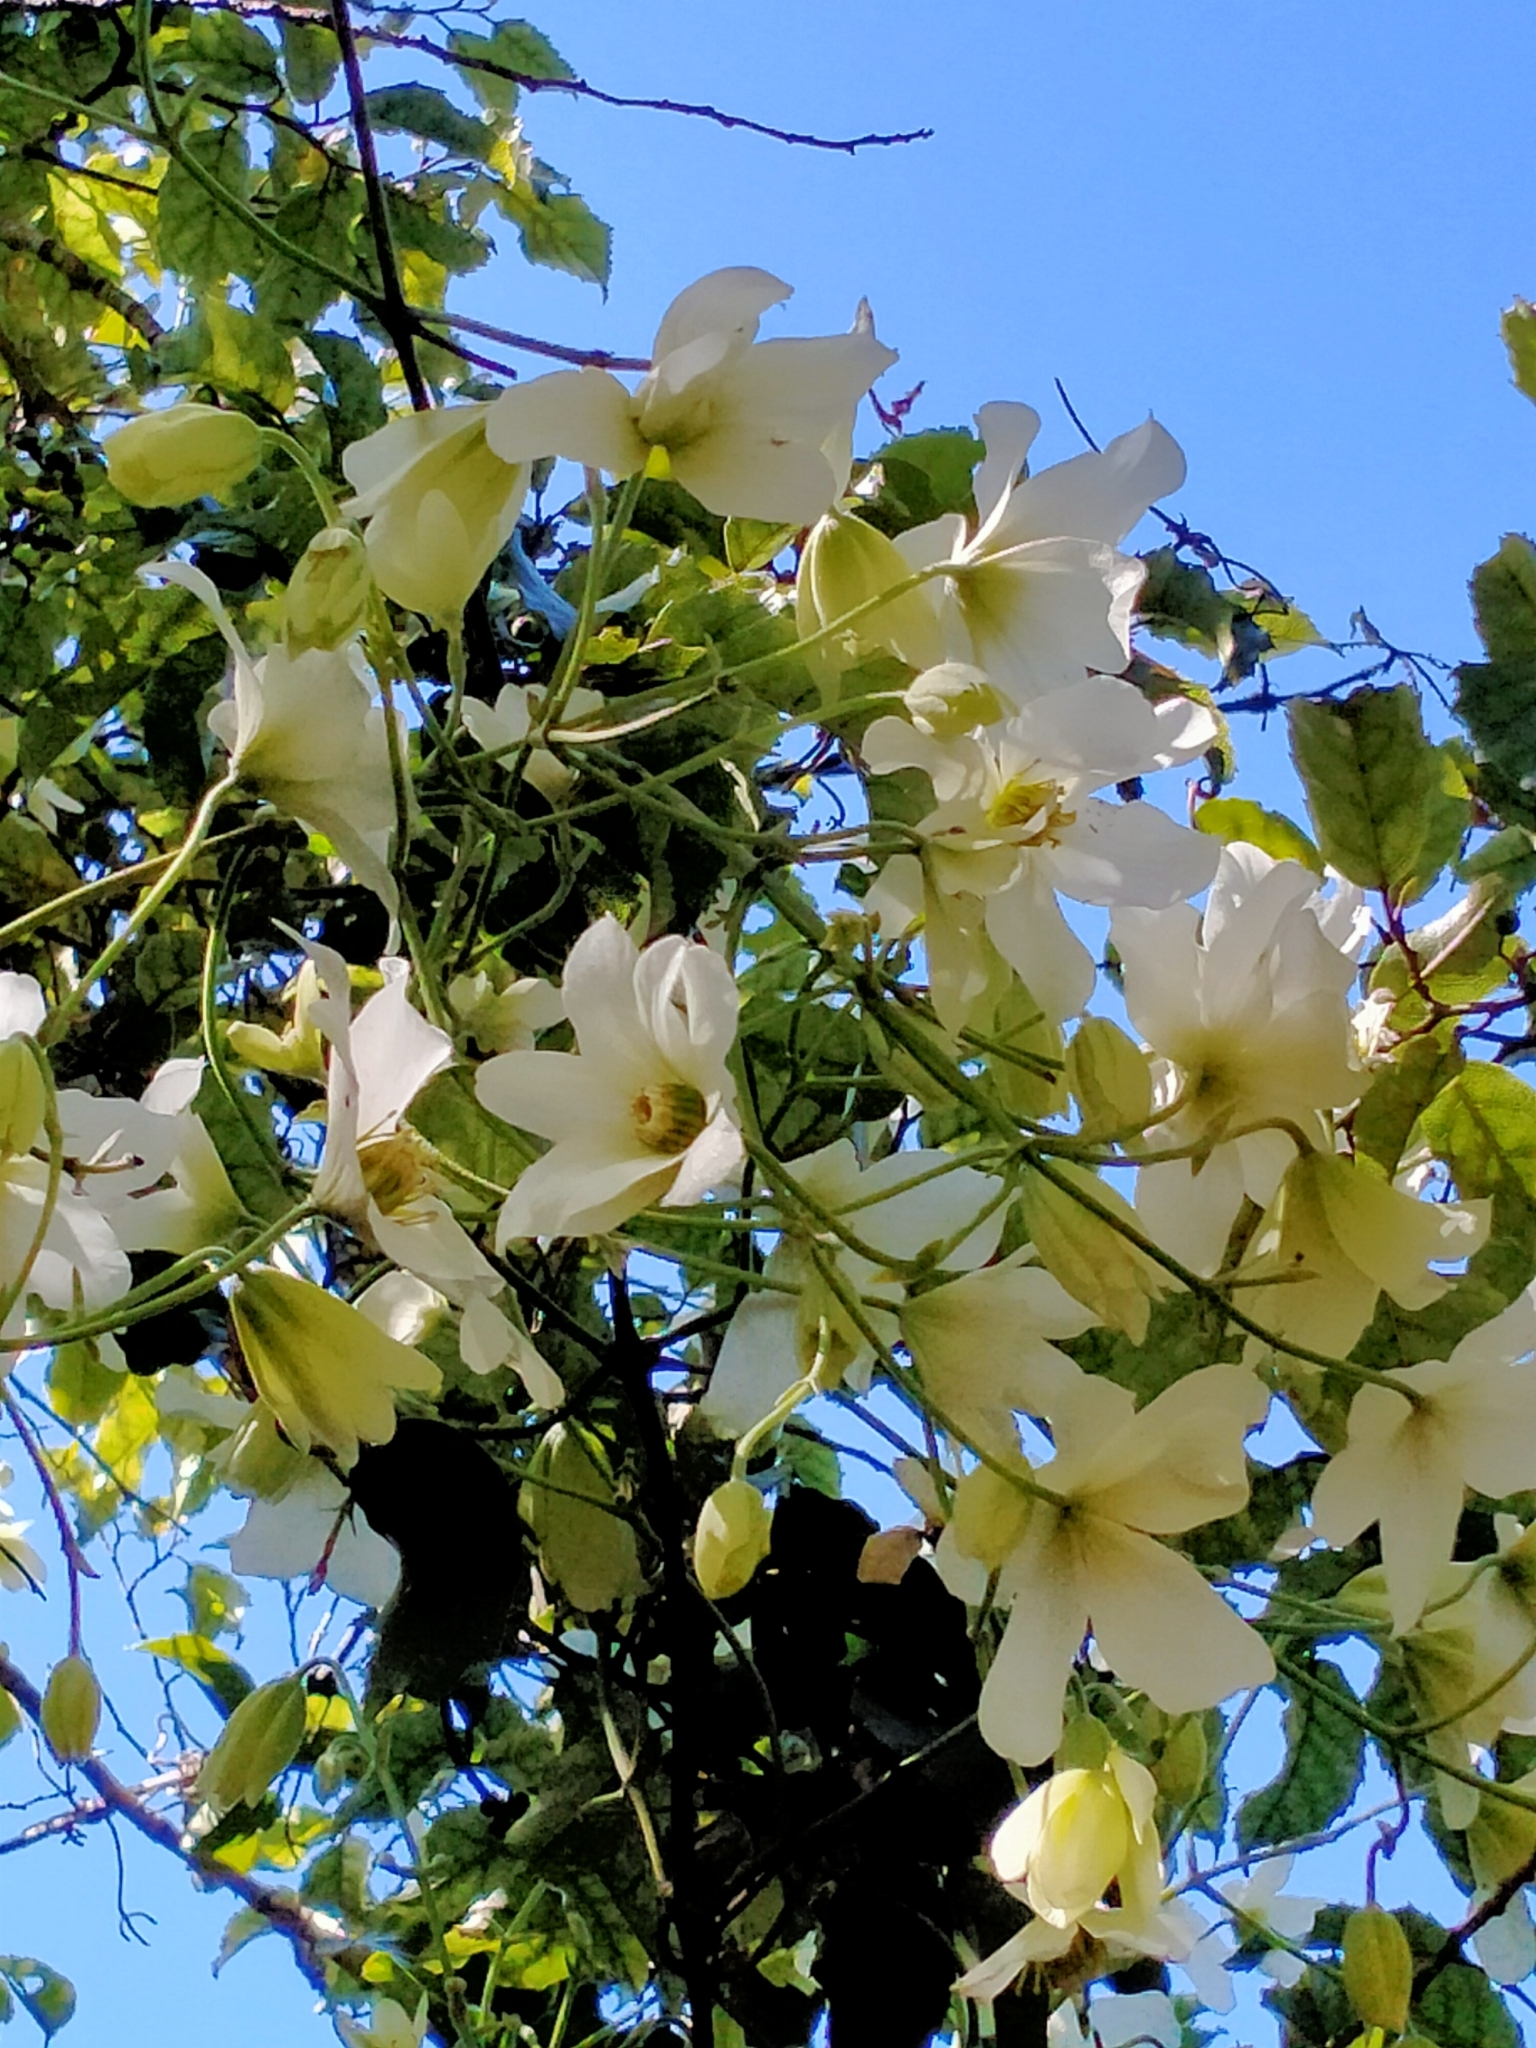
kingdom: Plantae
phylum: Tracheophyta
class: Magnoliopsida
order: Ranunculales
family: Ranunculaceae
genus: Clematis
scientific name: Clematis paniculata
